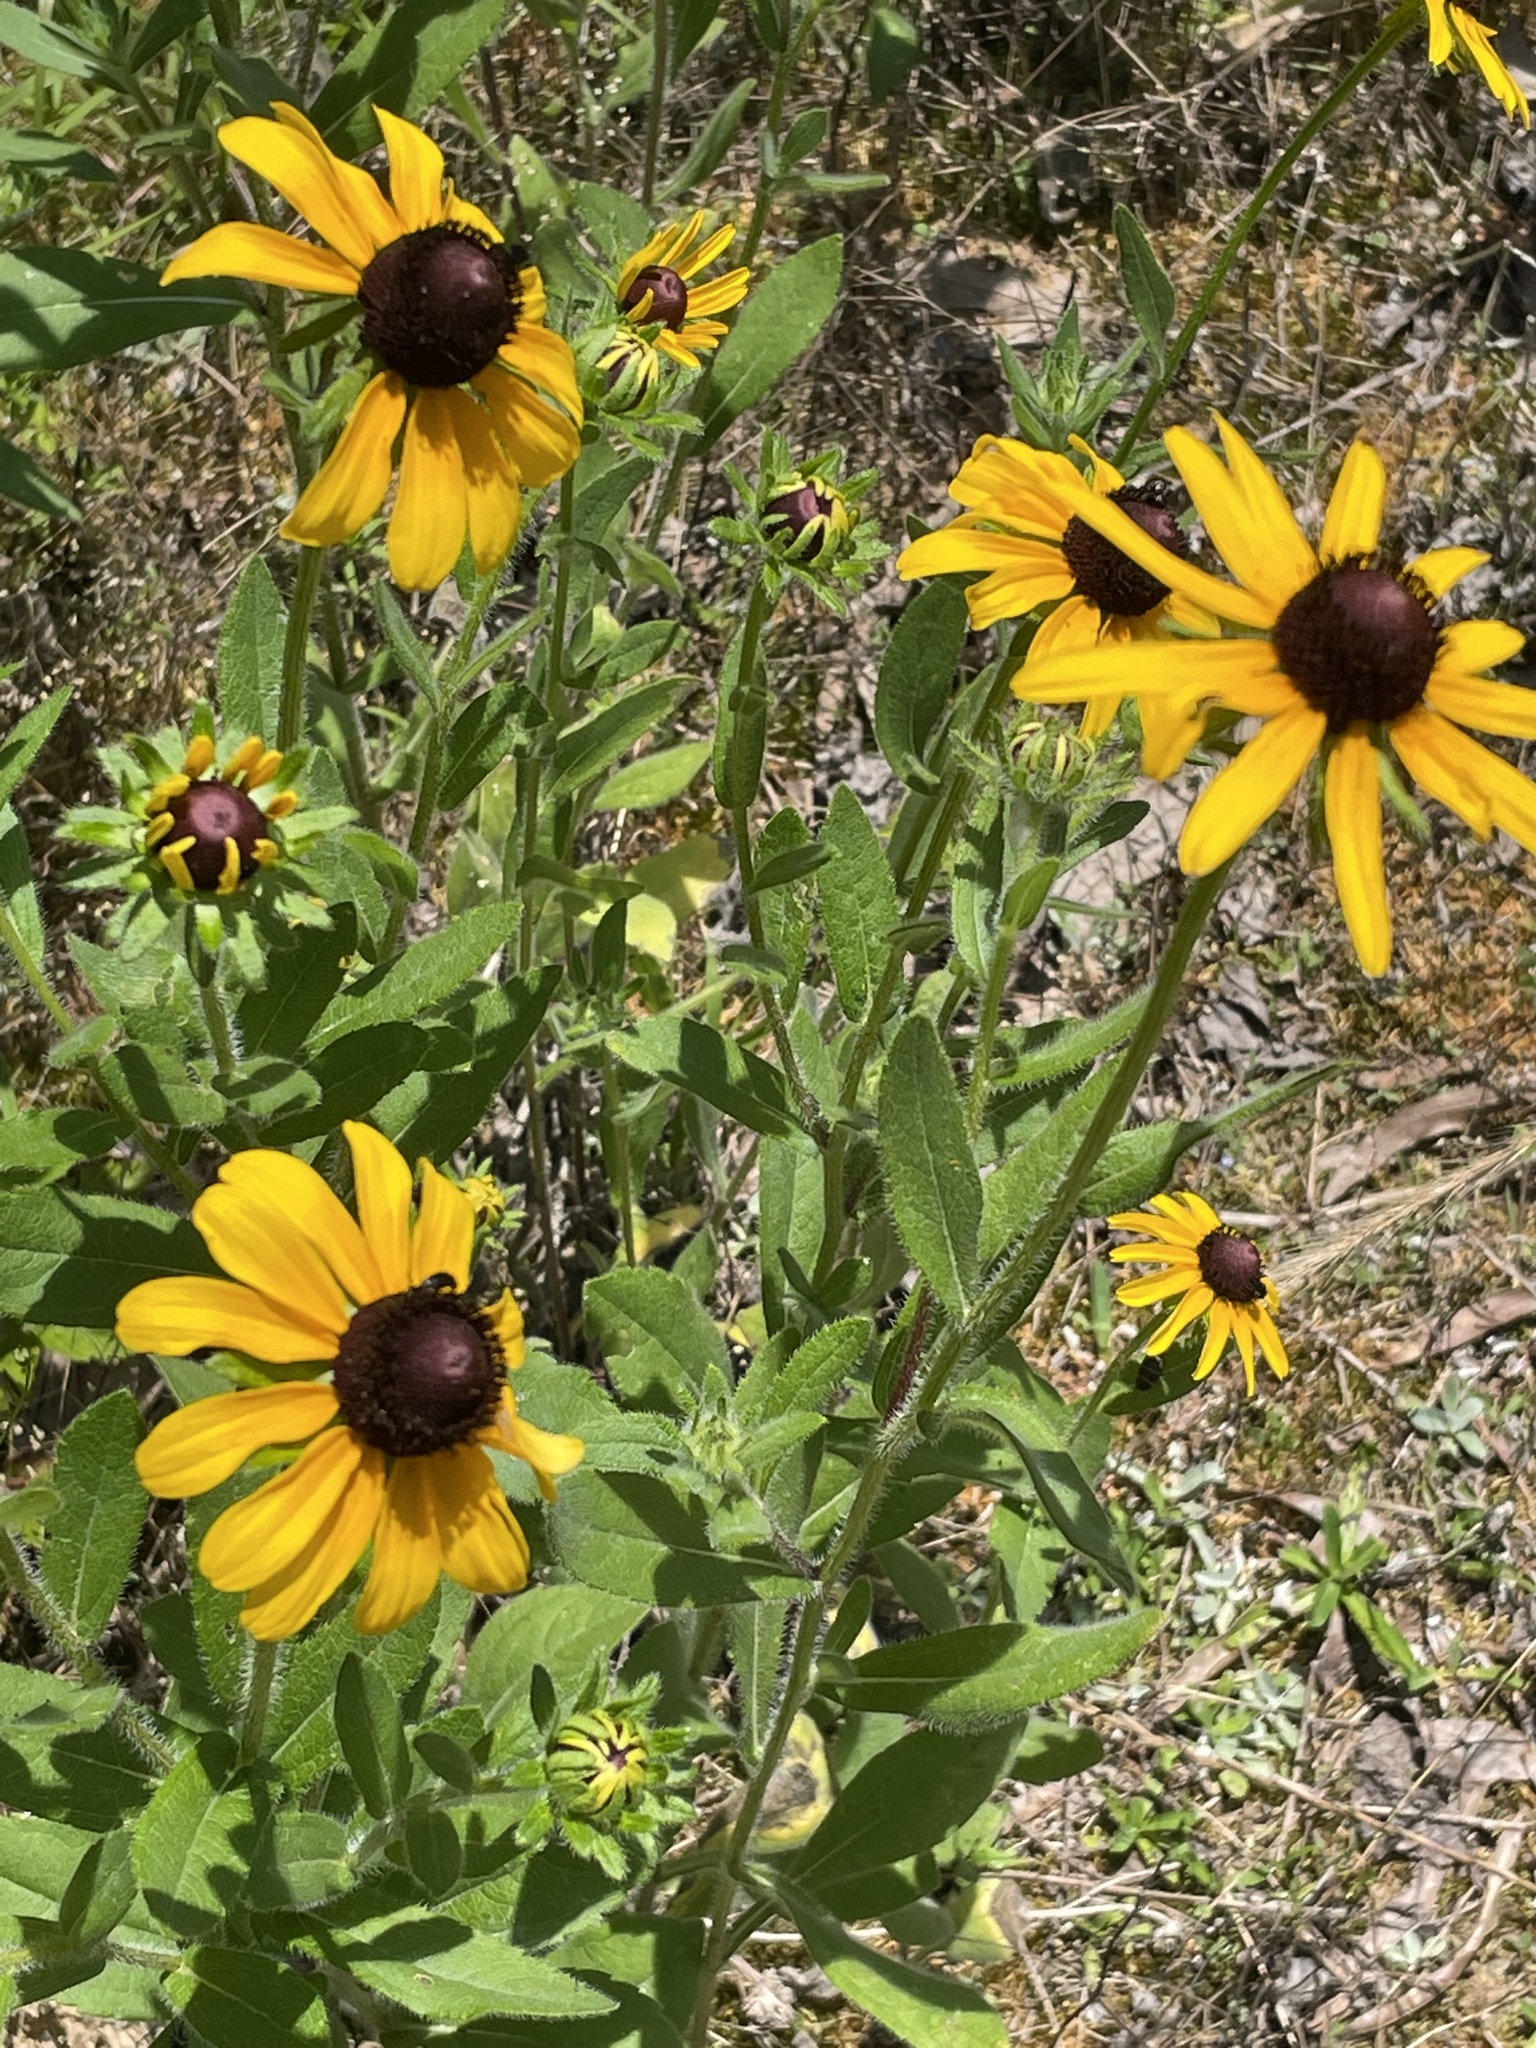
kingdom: Plantae
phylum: Tracheophyta
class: Magnoliopsida
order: Asterales
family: Asteraceae
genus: Rudbeckia
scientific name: Rudbeckia hirta
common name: Black-eyed-susan
